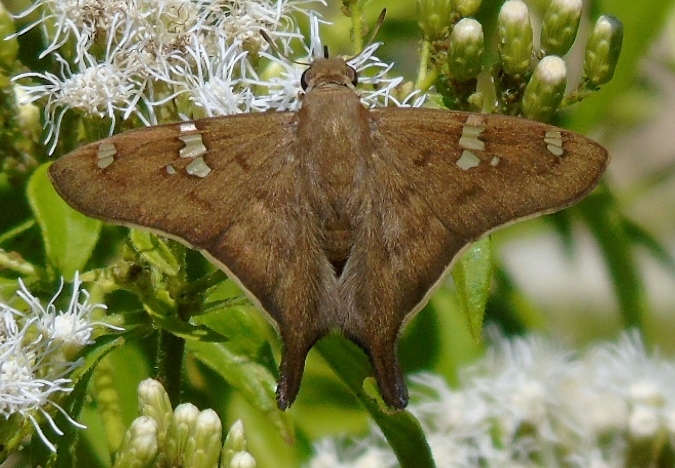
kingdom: Animalia
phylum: Arthropoda
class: Insecta
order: Lepidoptera
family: Hesperiidae
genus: Polythrix
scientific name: Polythrix octomaculata
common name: Eight-spotted longtail
